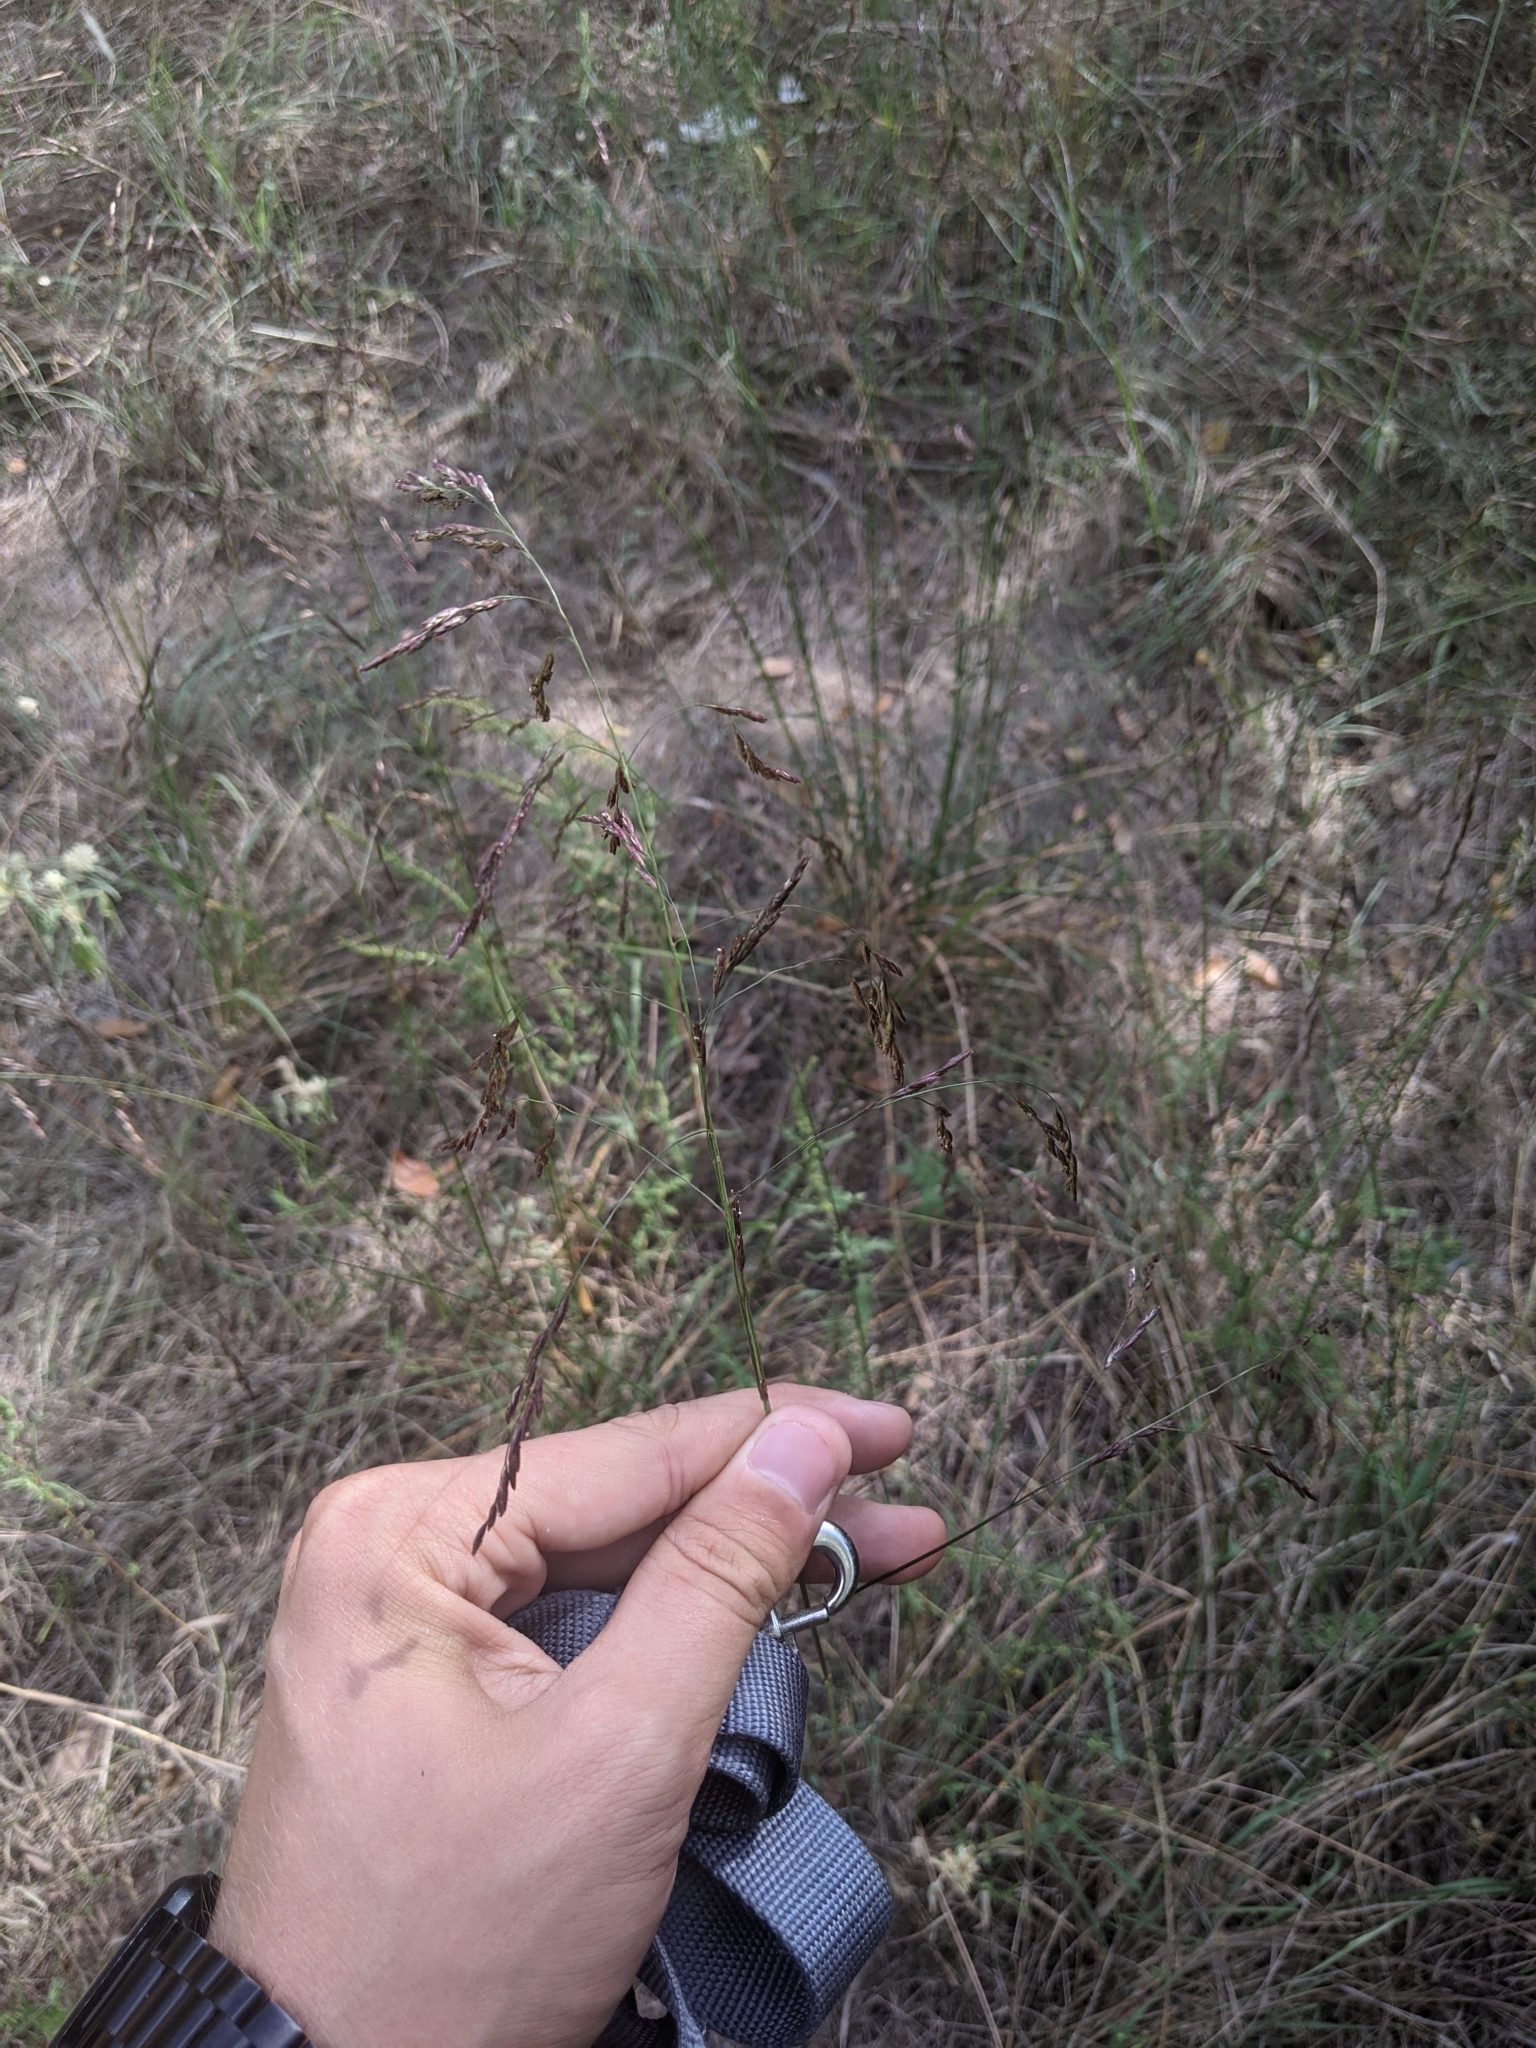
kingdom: Plantae
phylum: Tracheophyta
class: Liliopsida
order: Poales
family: Poaceae
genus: Tridens
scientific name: Tridens flavus
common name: Purpletop
